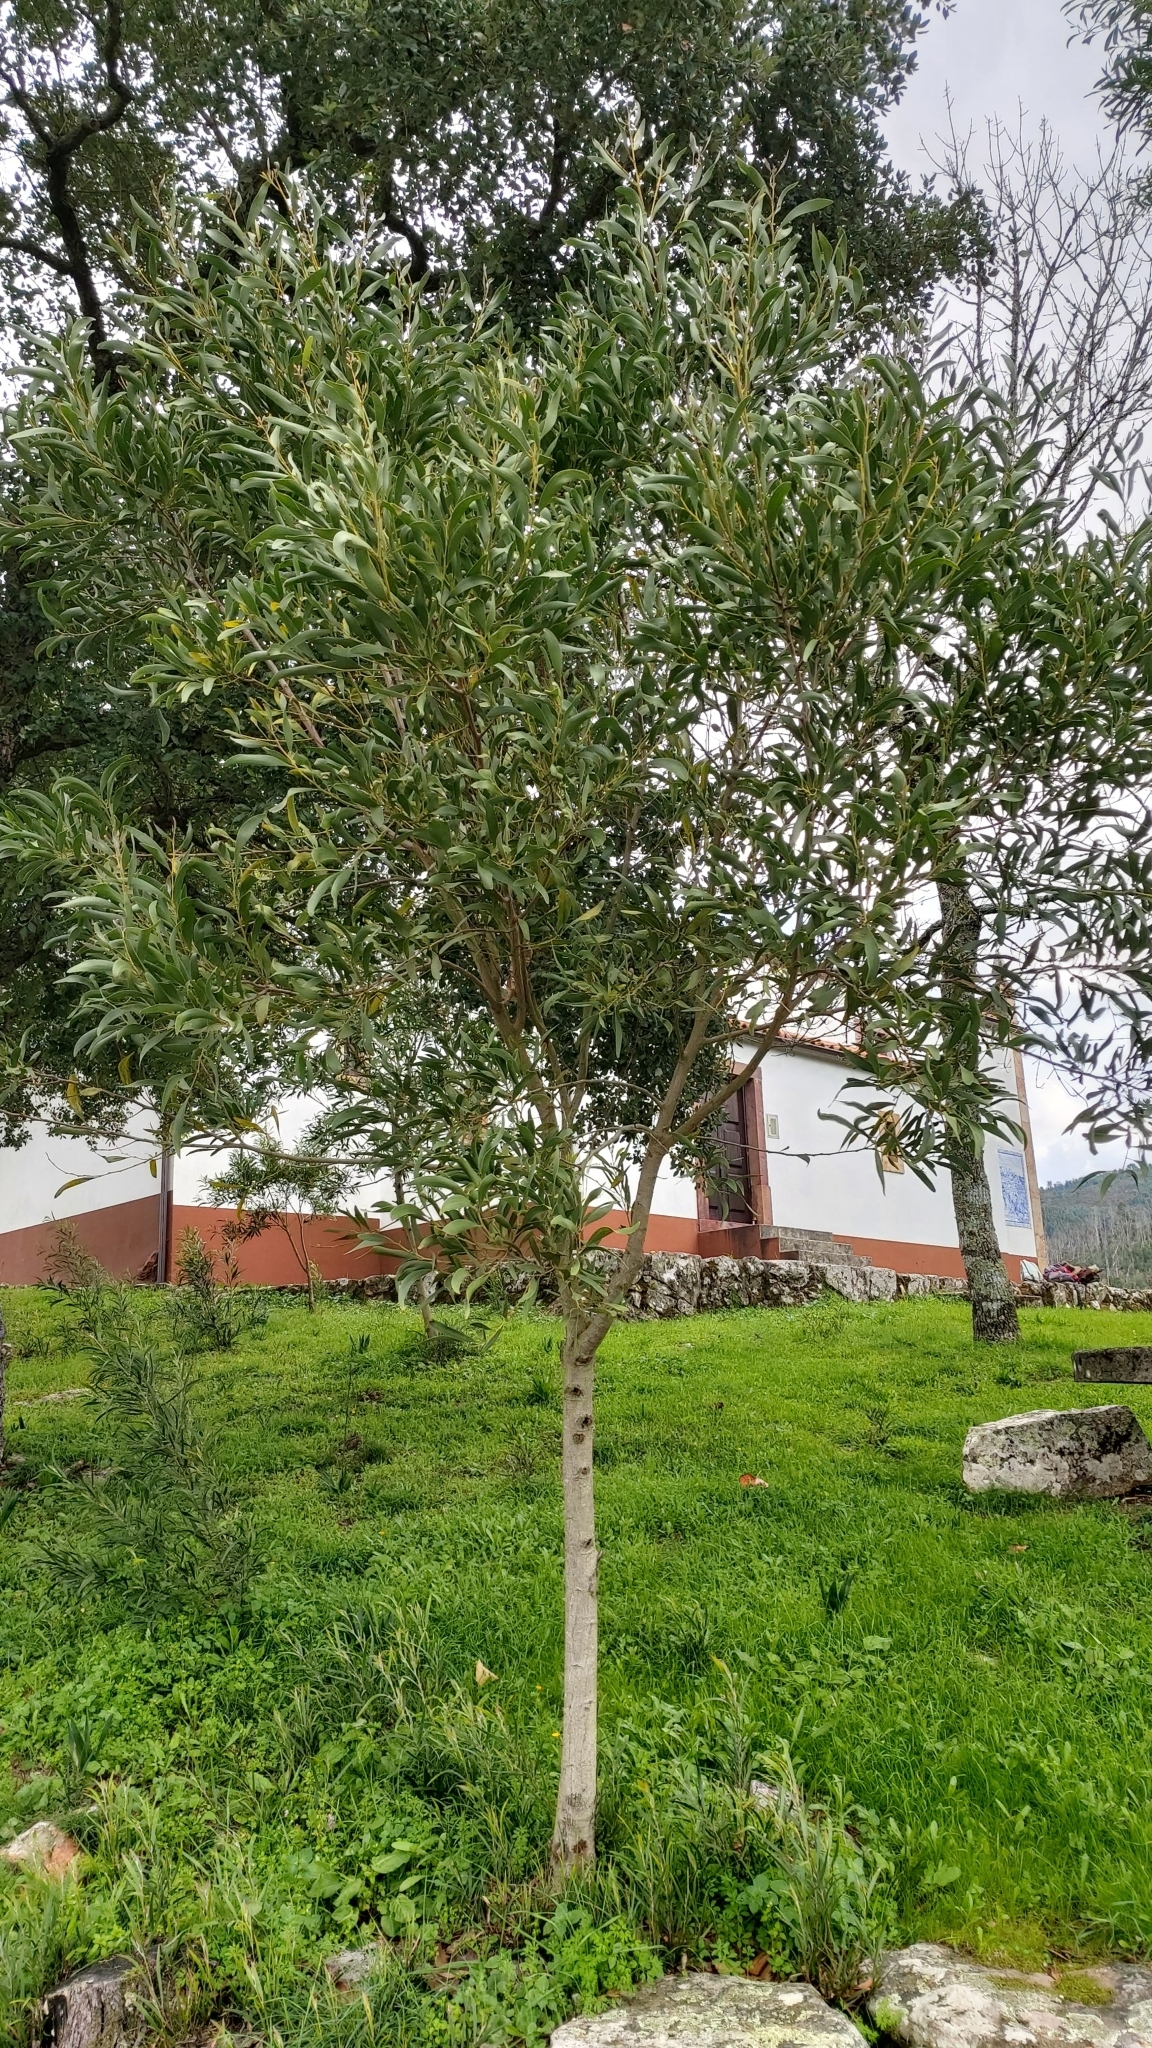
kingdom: Plantae
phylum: Tracheophyta
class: Magnoliopsida
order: Fabales
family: Fabaceae
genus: Acacia
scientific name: Acacia melanoxylon
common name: Blackwood
